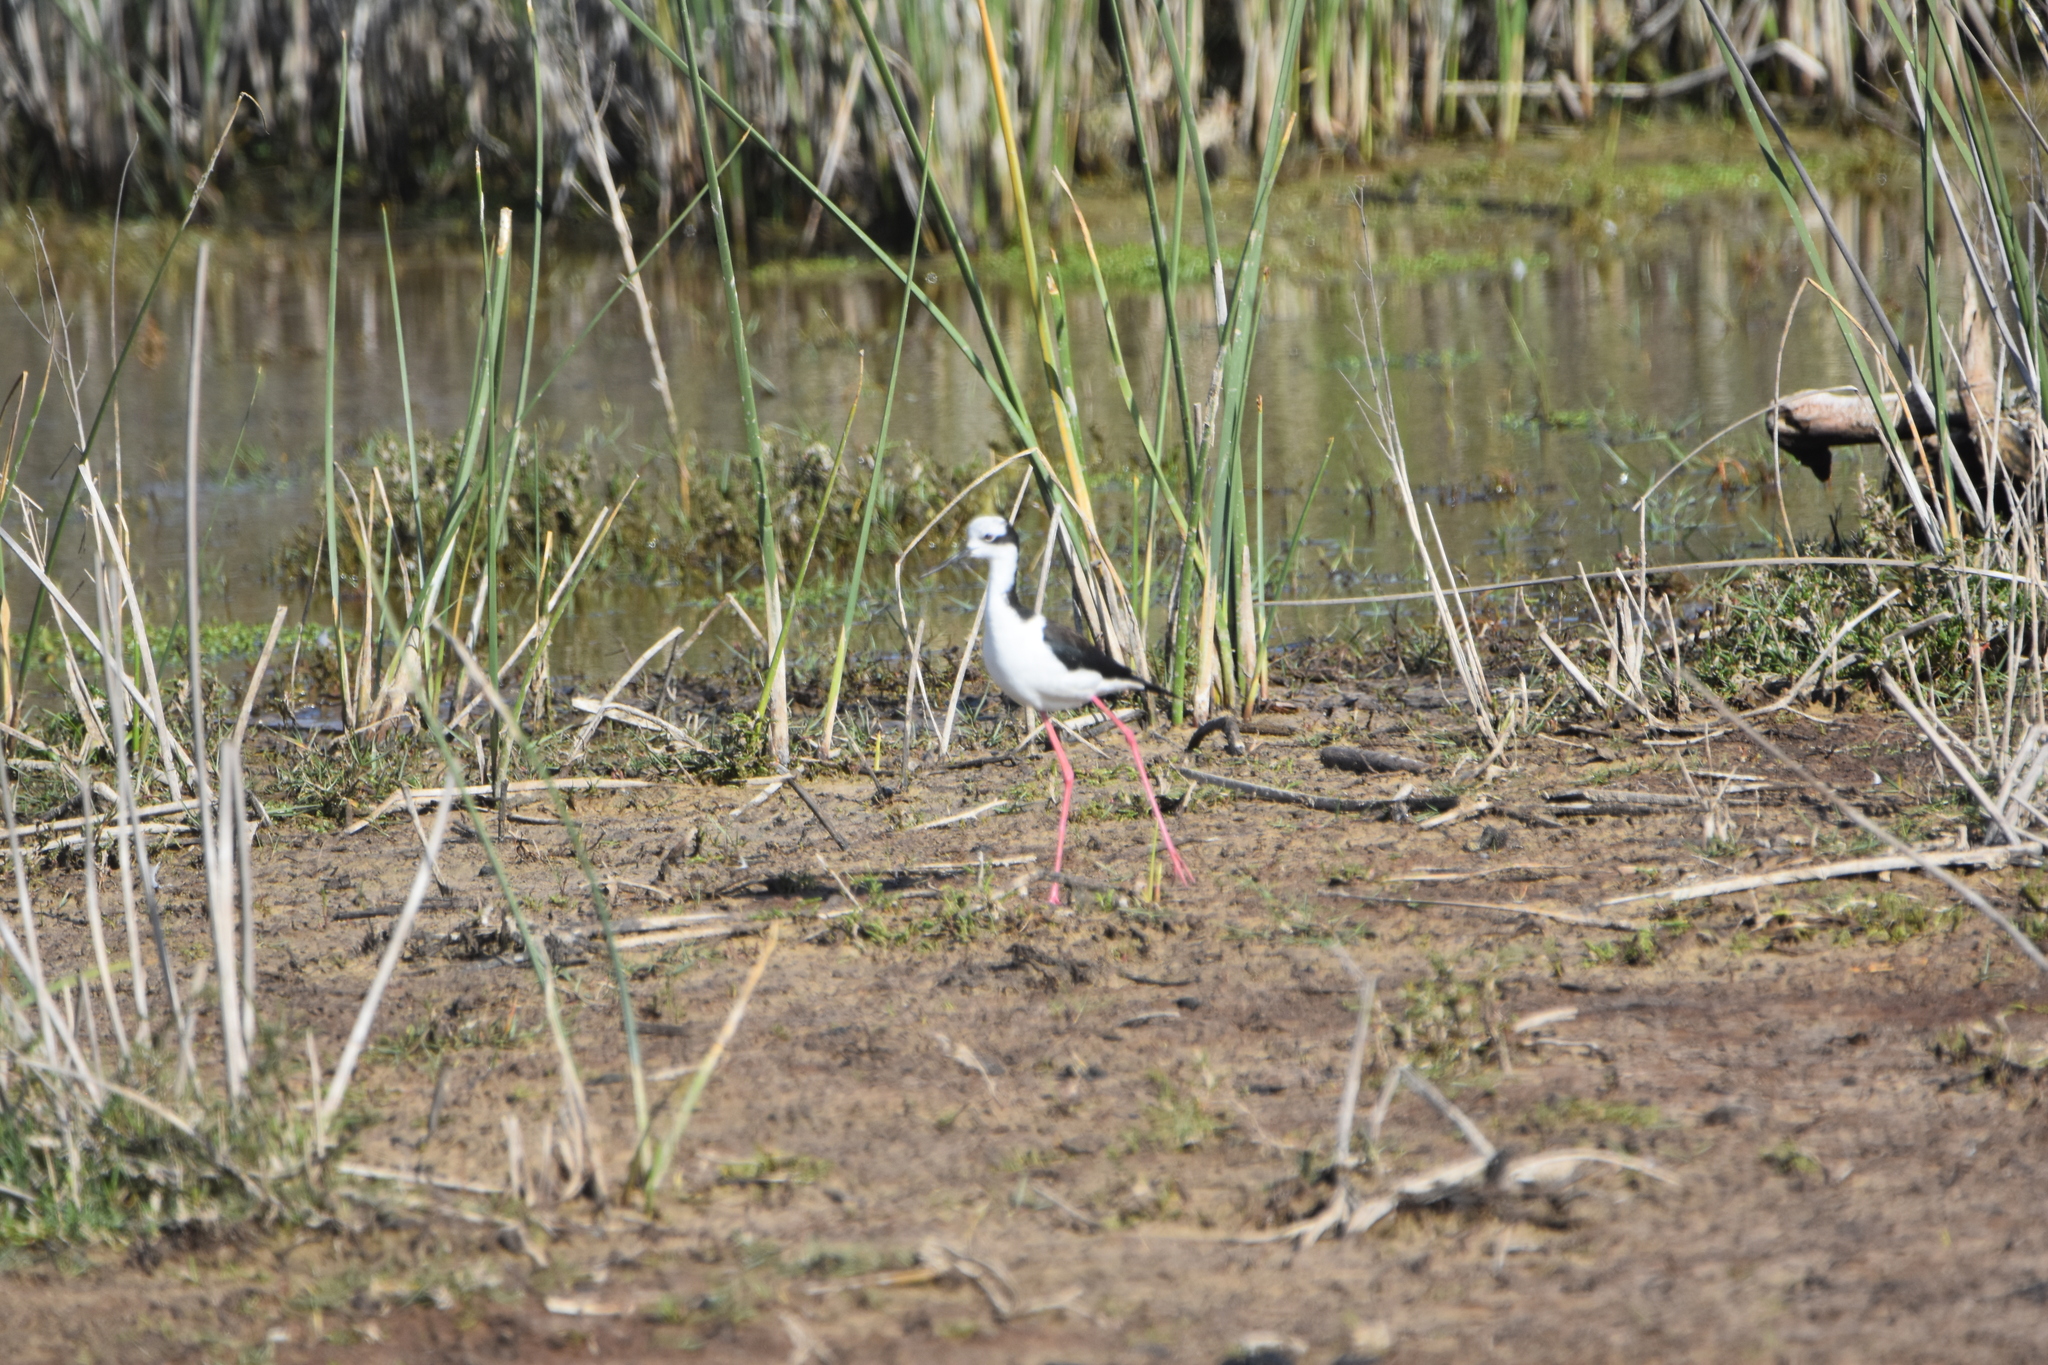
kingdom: Animalia
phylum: Chordata
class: Aves
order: Charadriiformes
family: Recurvirostridae
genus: Himantopus
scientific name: Himantopus mexicanus
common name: Black-necked stilt
